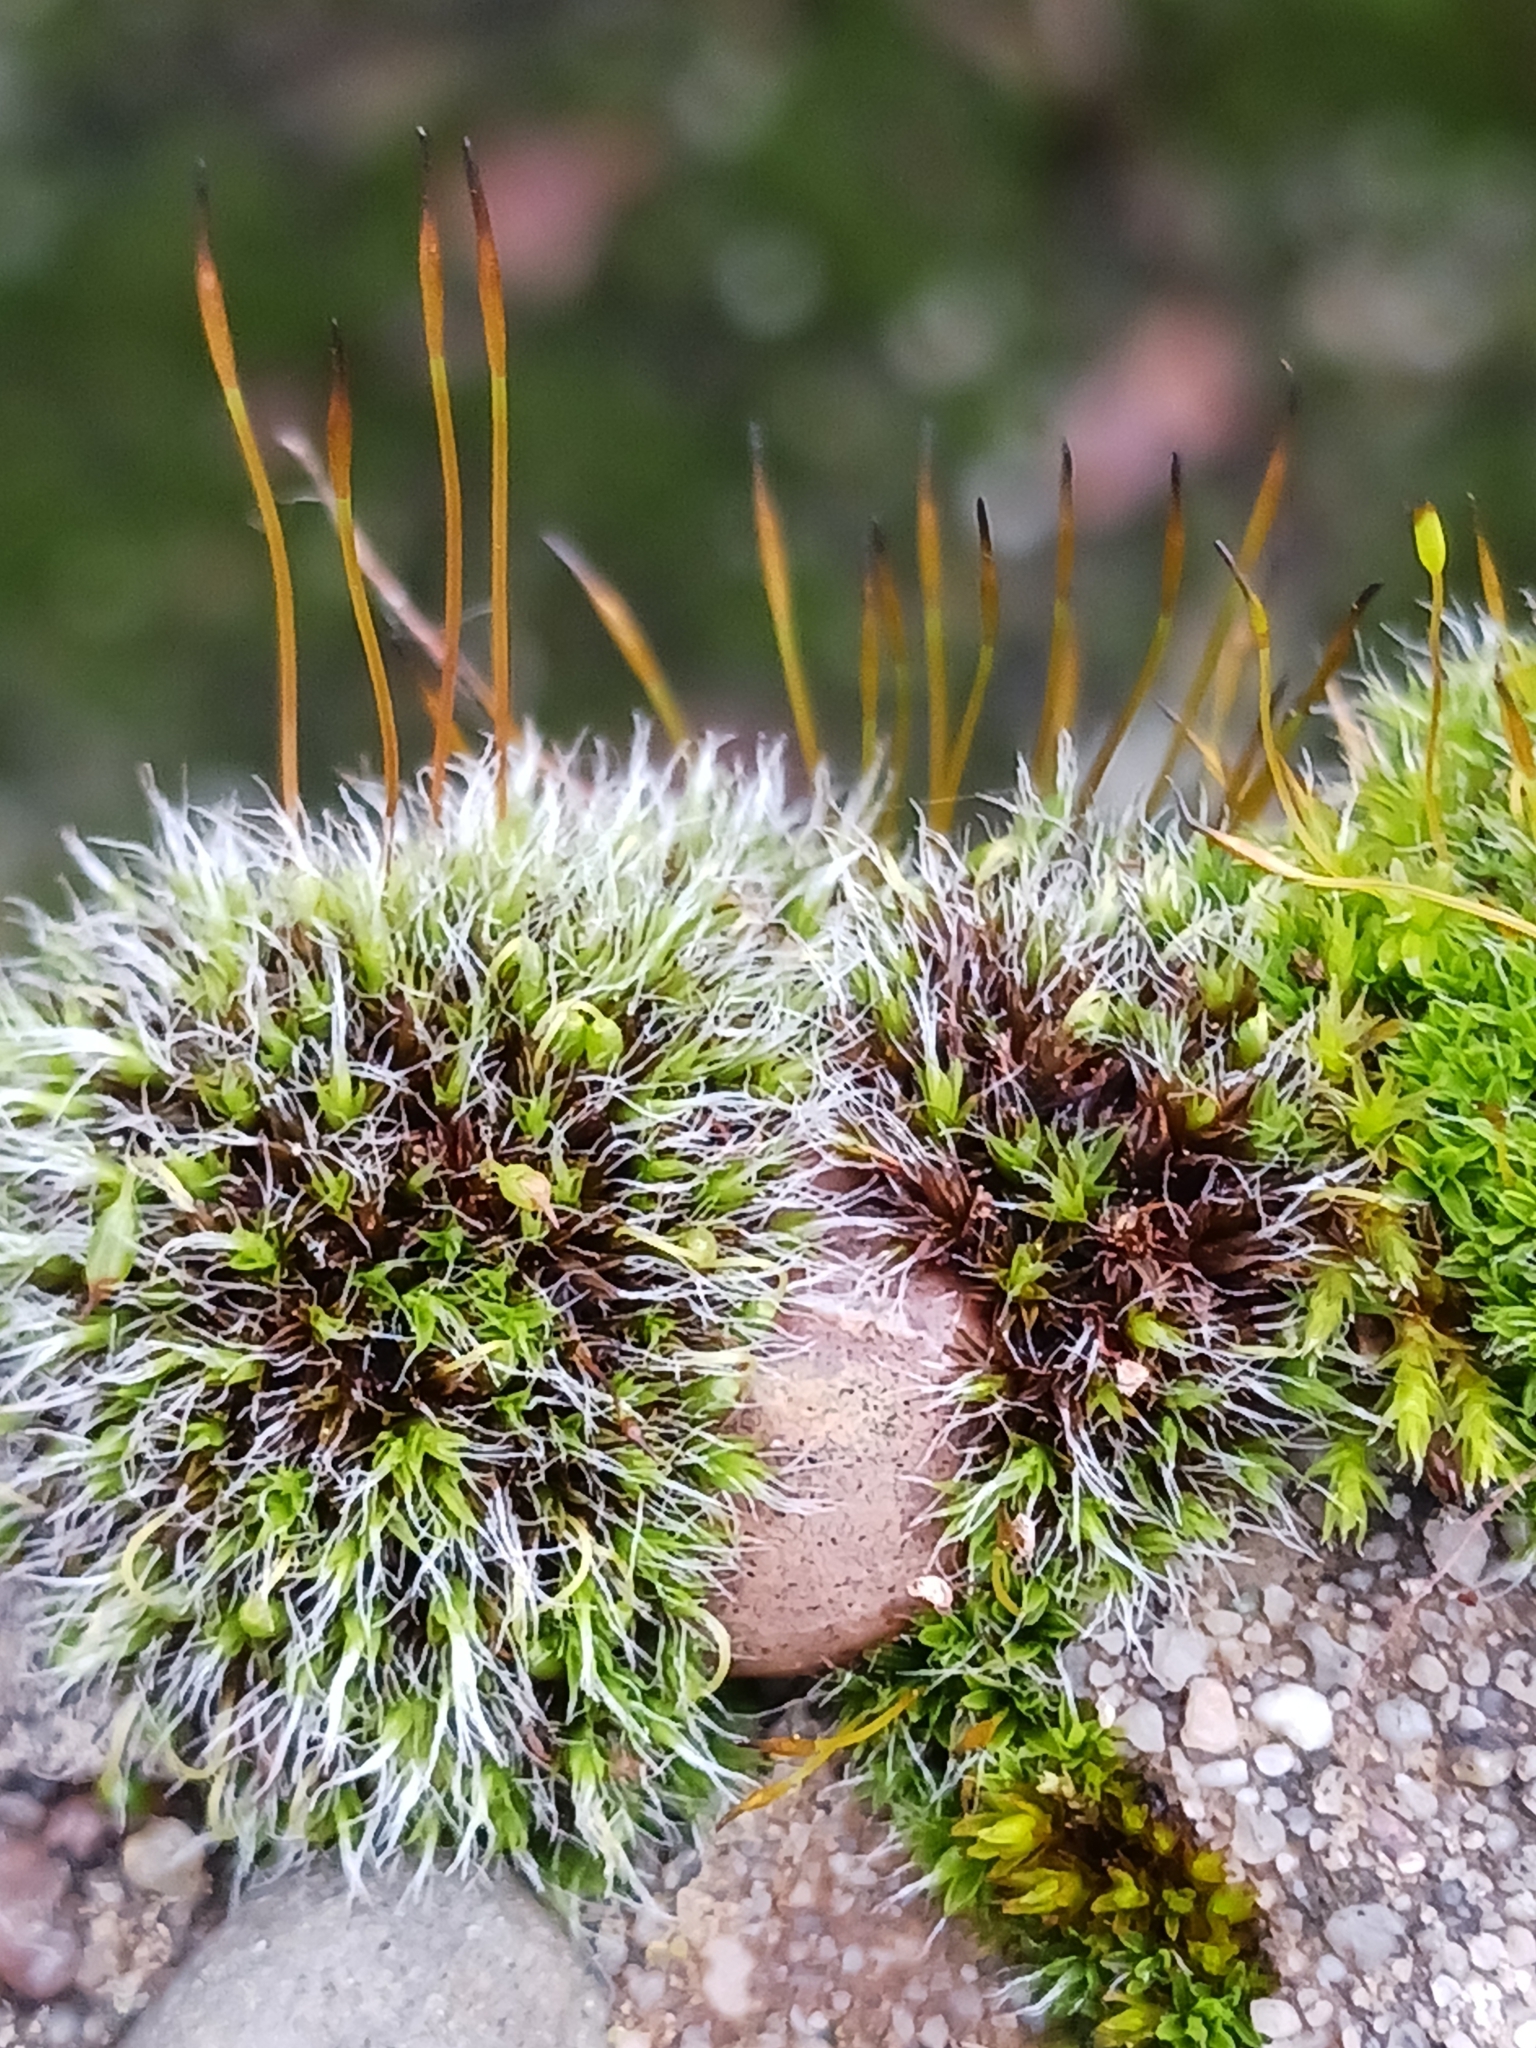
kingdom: Plantae
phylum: Bryophyta
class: Bryopsida
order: Grimmiales
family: Grimmiaceae
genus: Grimmia
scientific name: Grimmia pulvinata
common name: Grey-cushioned grimmia
